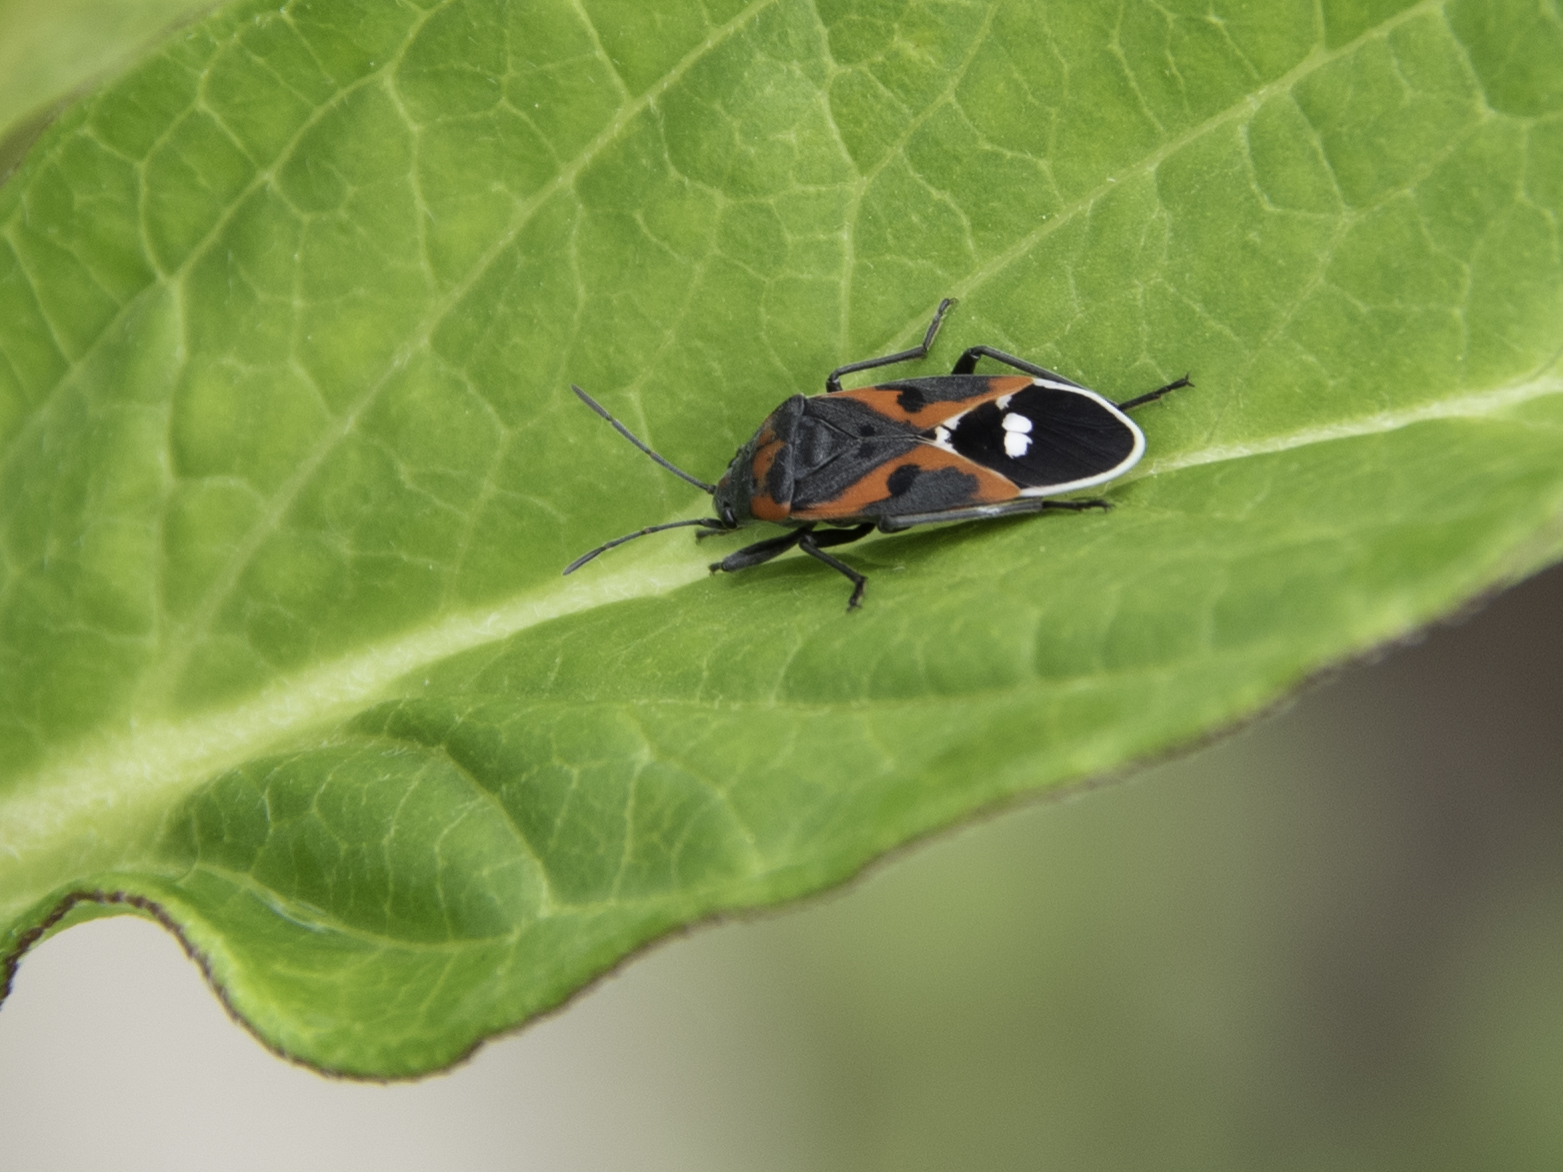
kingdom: Animalia
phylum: Arthropoda
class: Insecta
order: Hemiptera
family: Lygaeidae
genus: Lygaeus
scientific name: Lygaeus kalmii
